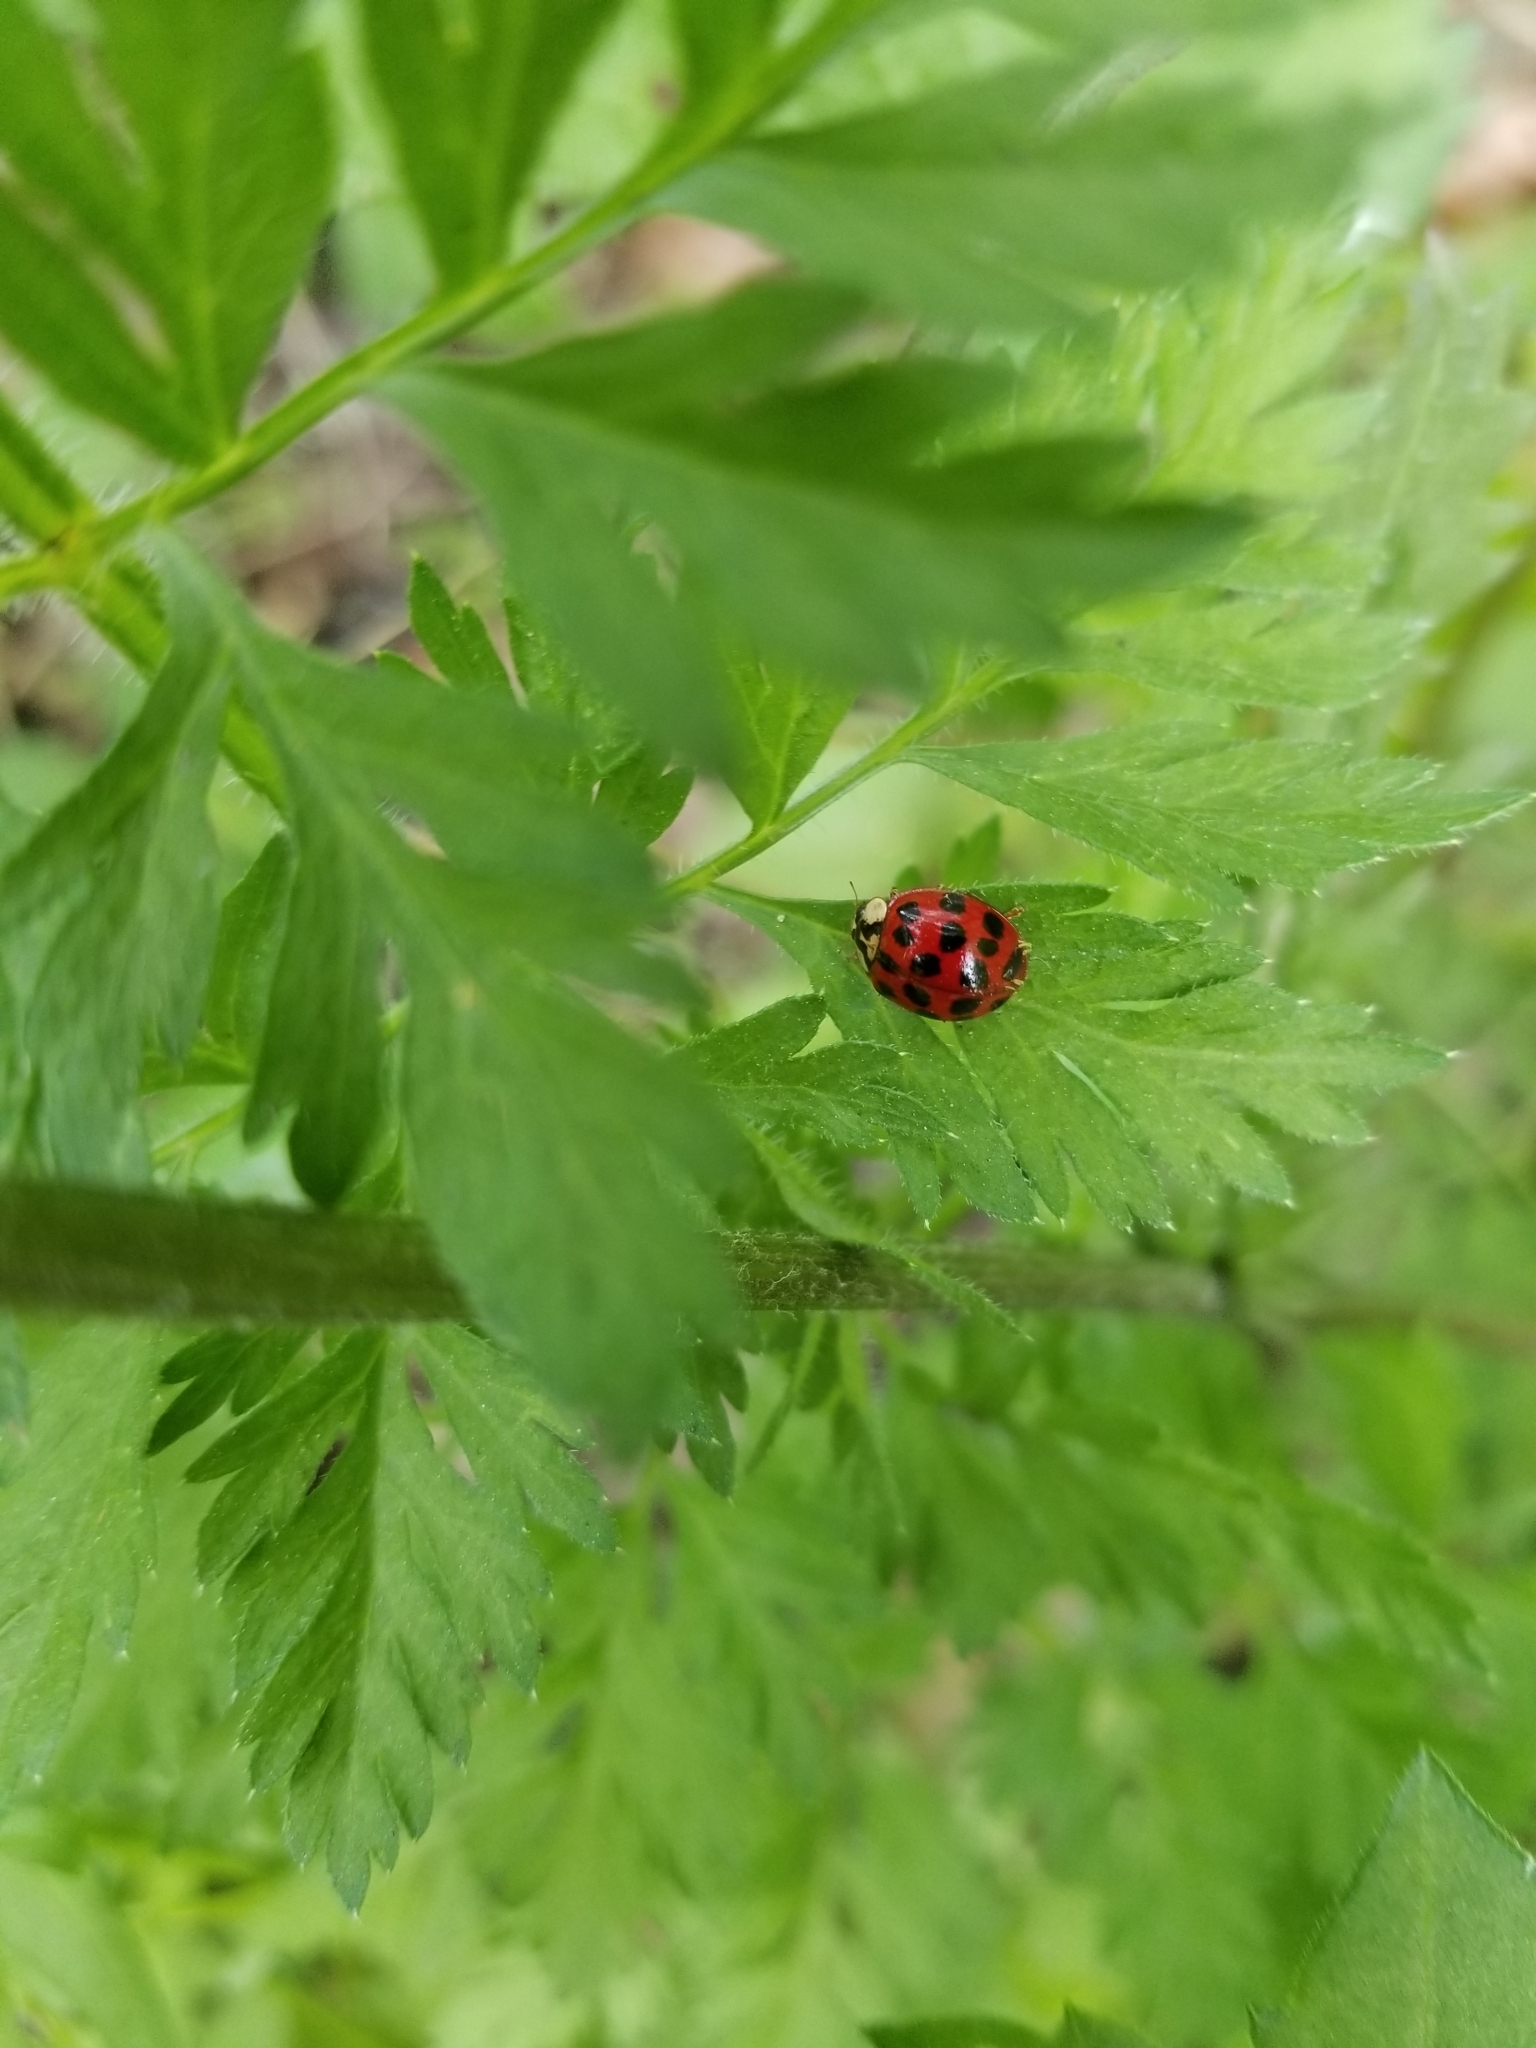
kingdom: Animalia
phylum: Arthropoda
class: Insecta
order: Coleoptera
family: Coccinellidae
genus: Harmonia
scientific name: Harmonia axyridis
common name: Harlequin ladybird
